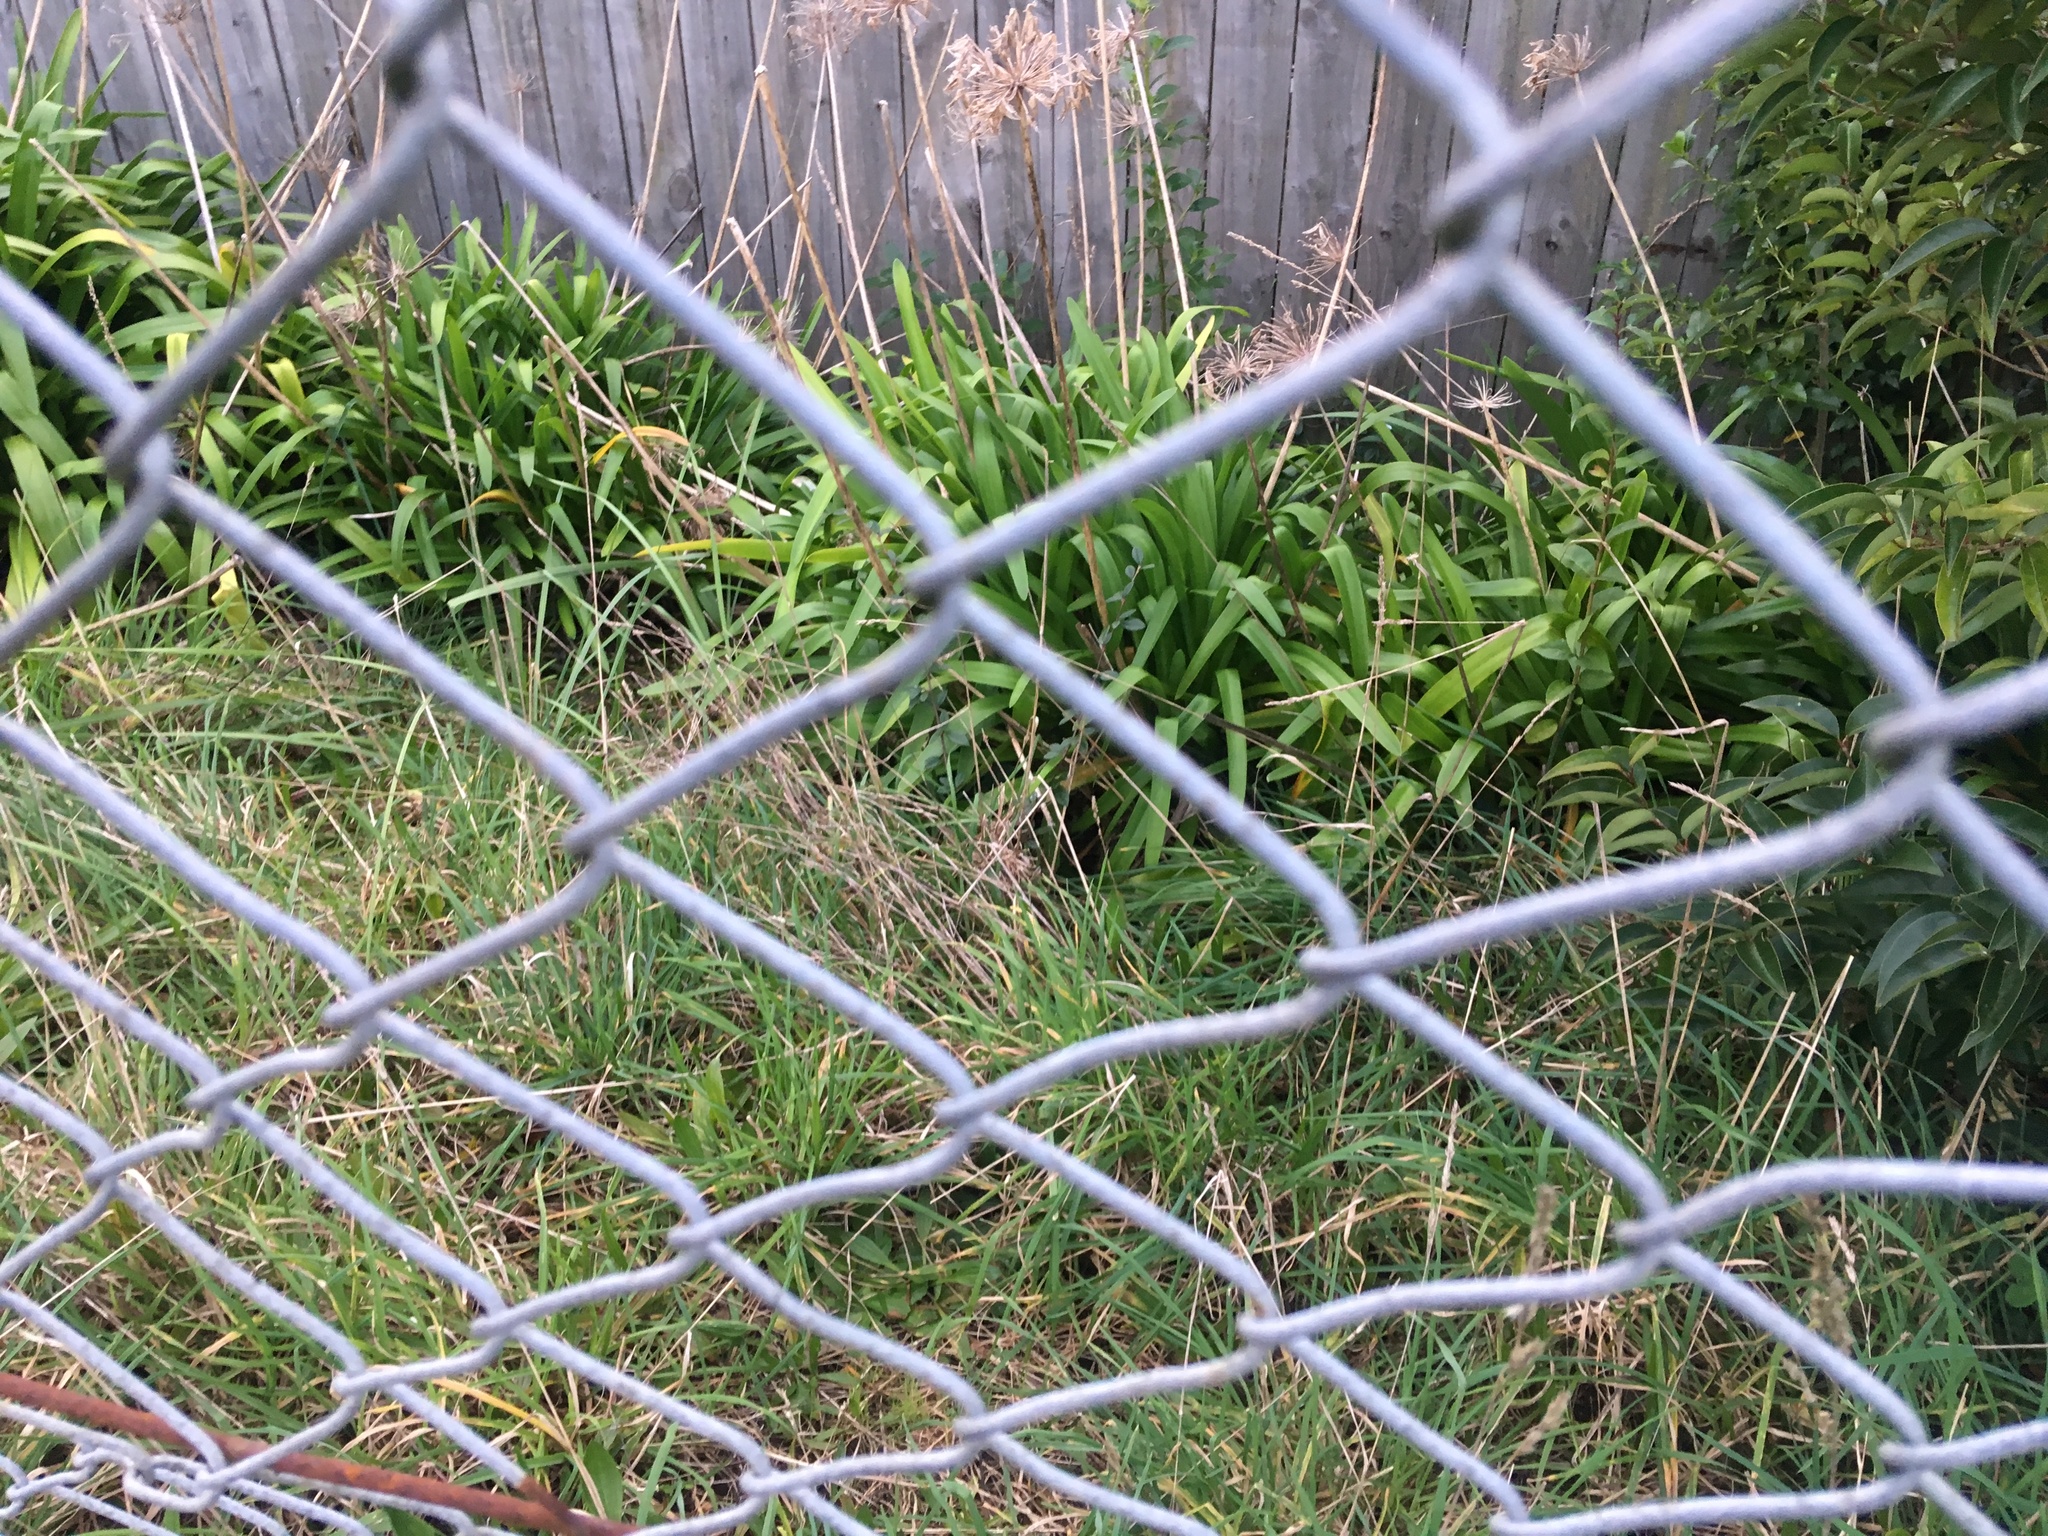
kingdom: Plantae
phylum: Tracheophyta
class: Liliopsida
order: Asparagales
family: Amaryllidaceae
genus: Agapanthus
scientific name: Agapanthus praecox
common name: African-lily
